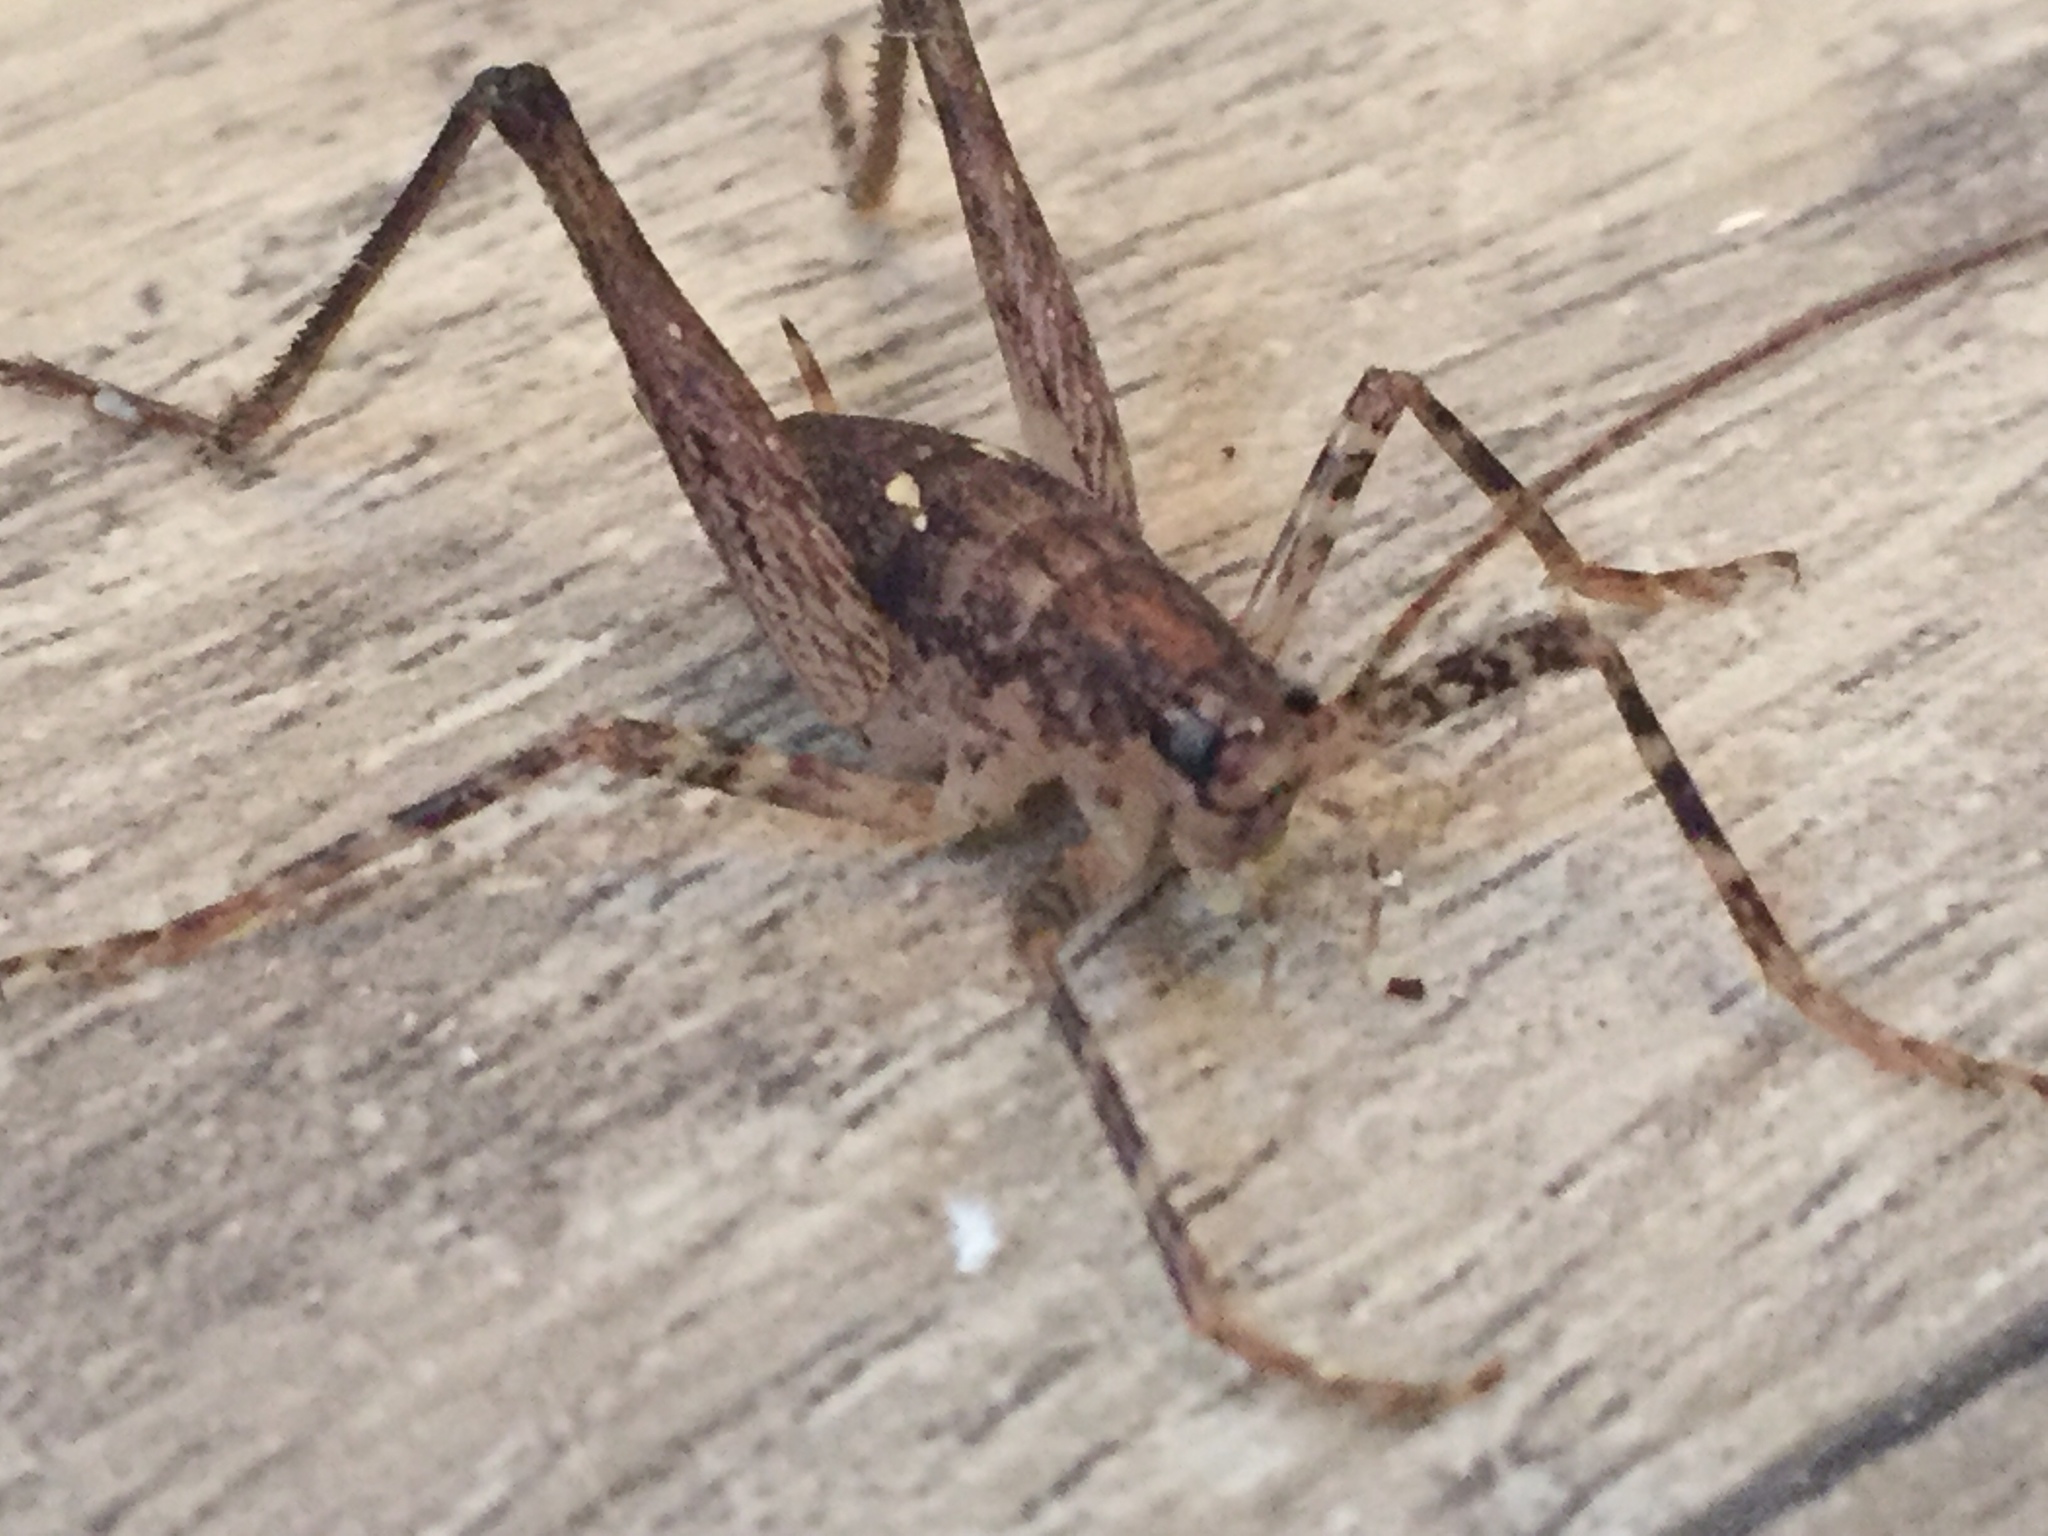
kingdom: Animalia
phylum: Arthropoda
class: Insecta
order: Orthoptera
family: Rhaphidophoridae
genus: Isoplectron
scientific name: Isoplectron armatum
